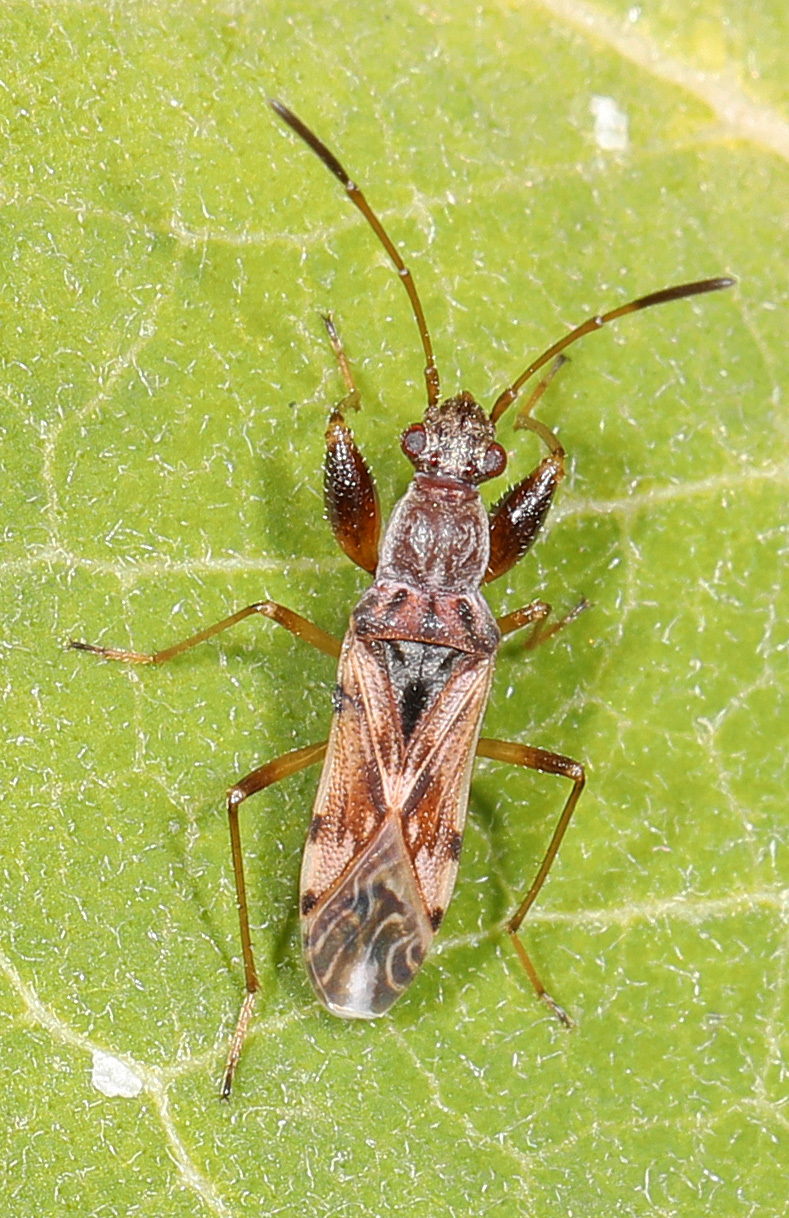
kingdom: Animalia
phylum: Arthropoda
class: Insecta
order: Hemiptera
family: Rhyparochromidae
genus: Neopamera
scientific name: Neopamera bilobata
